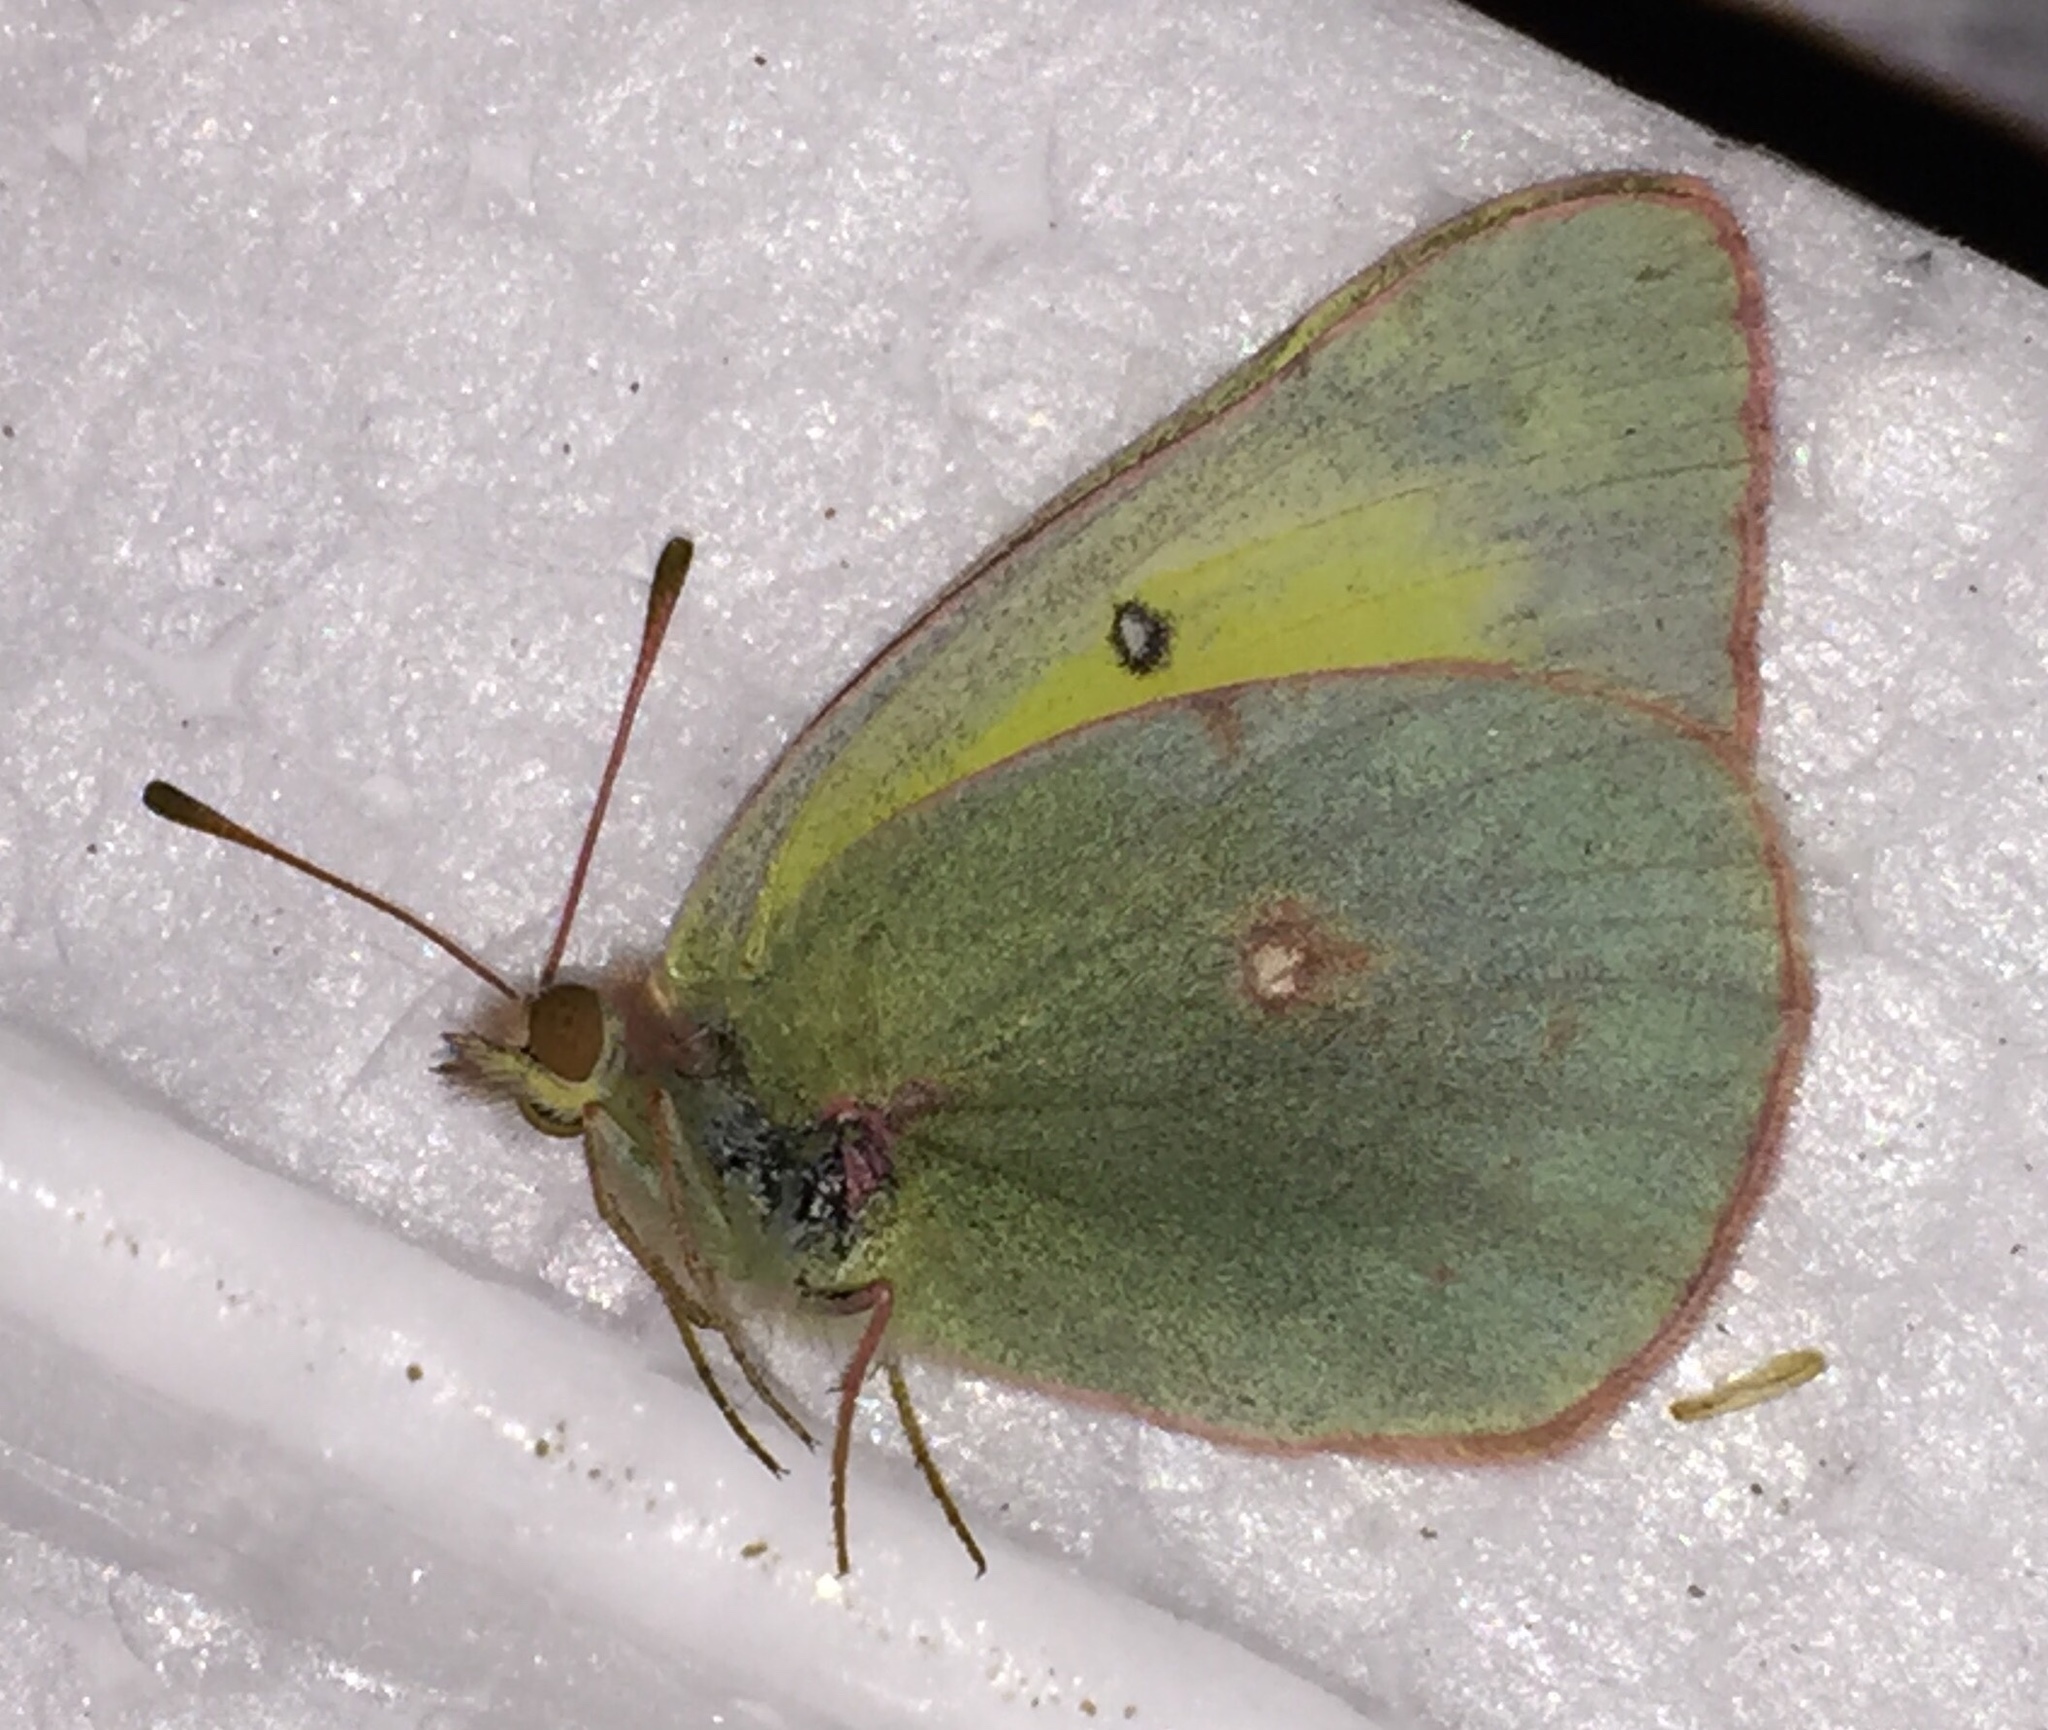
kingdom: Animalia
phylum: Arthropoda
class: Insecta
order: Lepidoptera
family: Pieridae
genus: Colias
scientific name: Colias philodice
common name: Clouded sulphur
